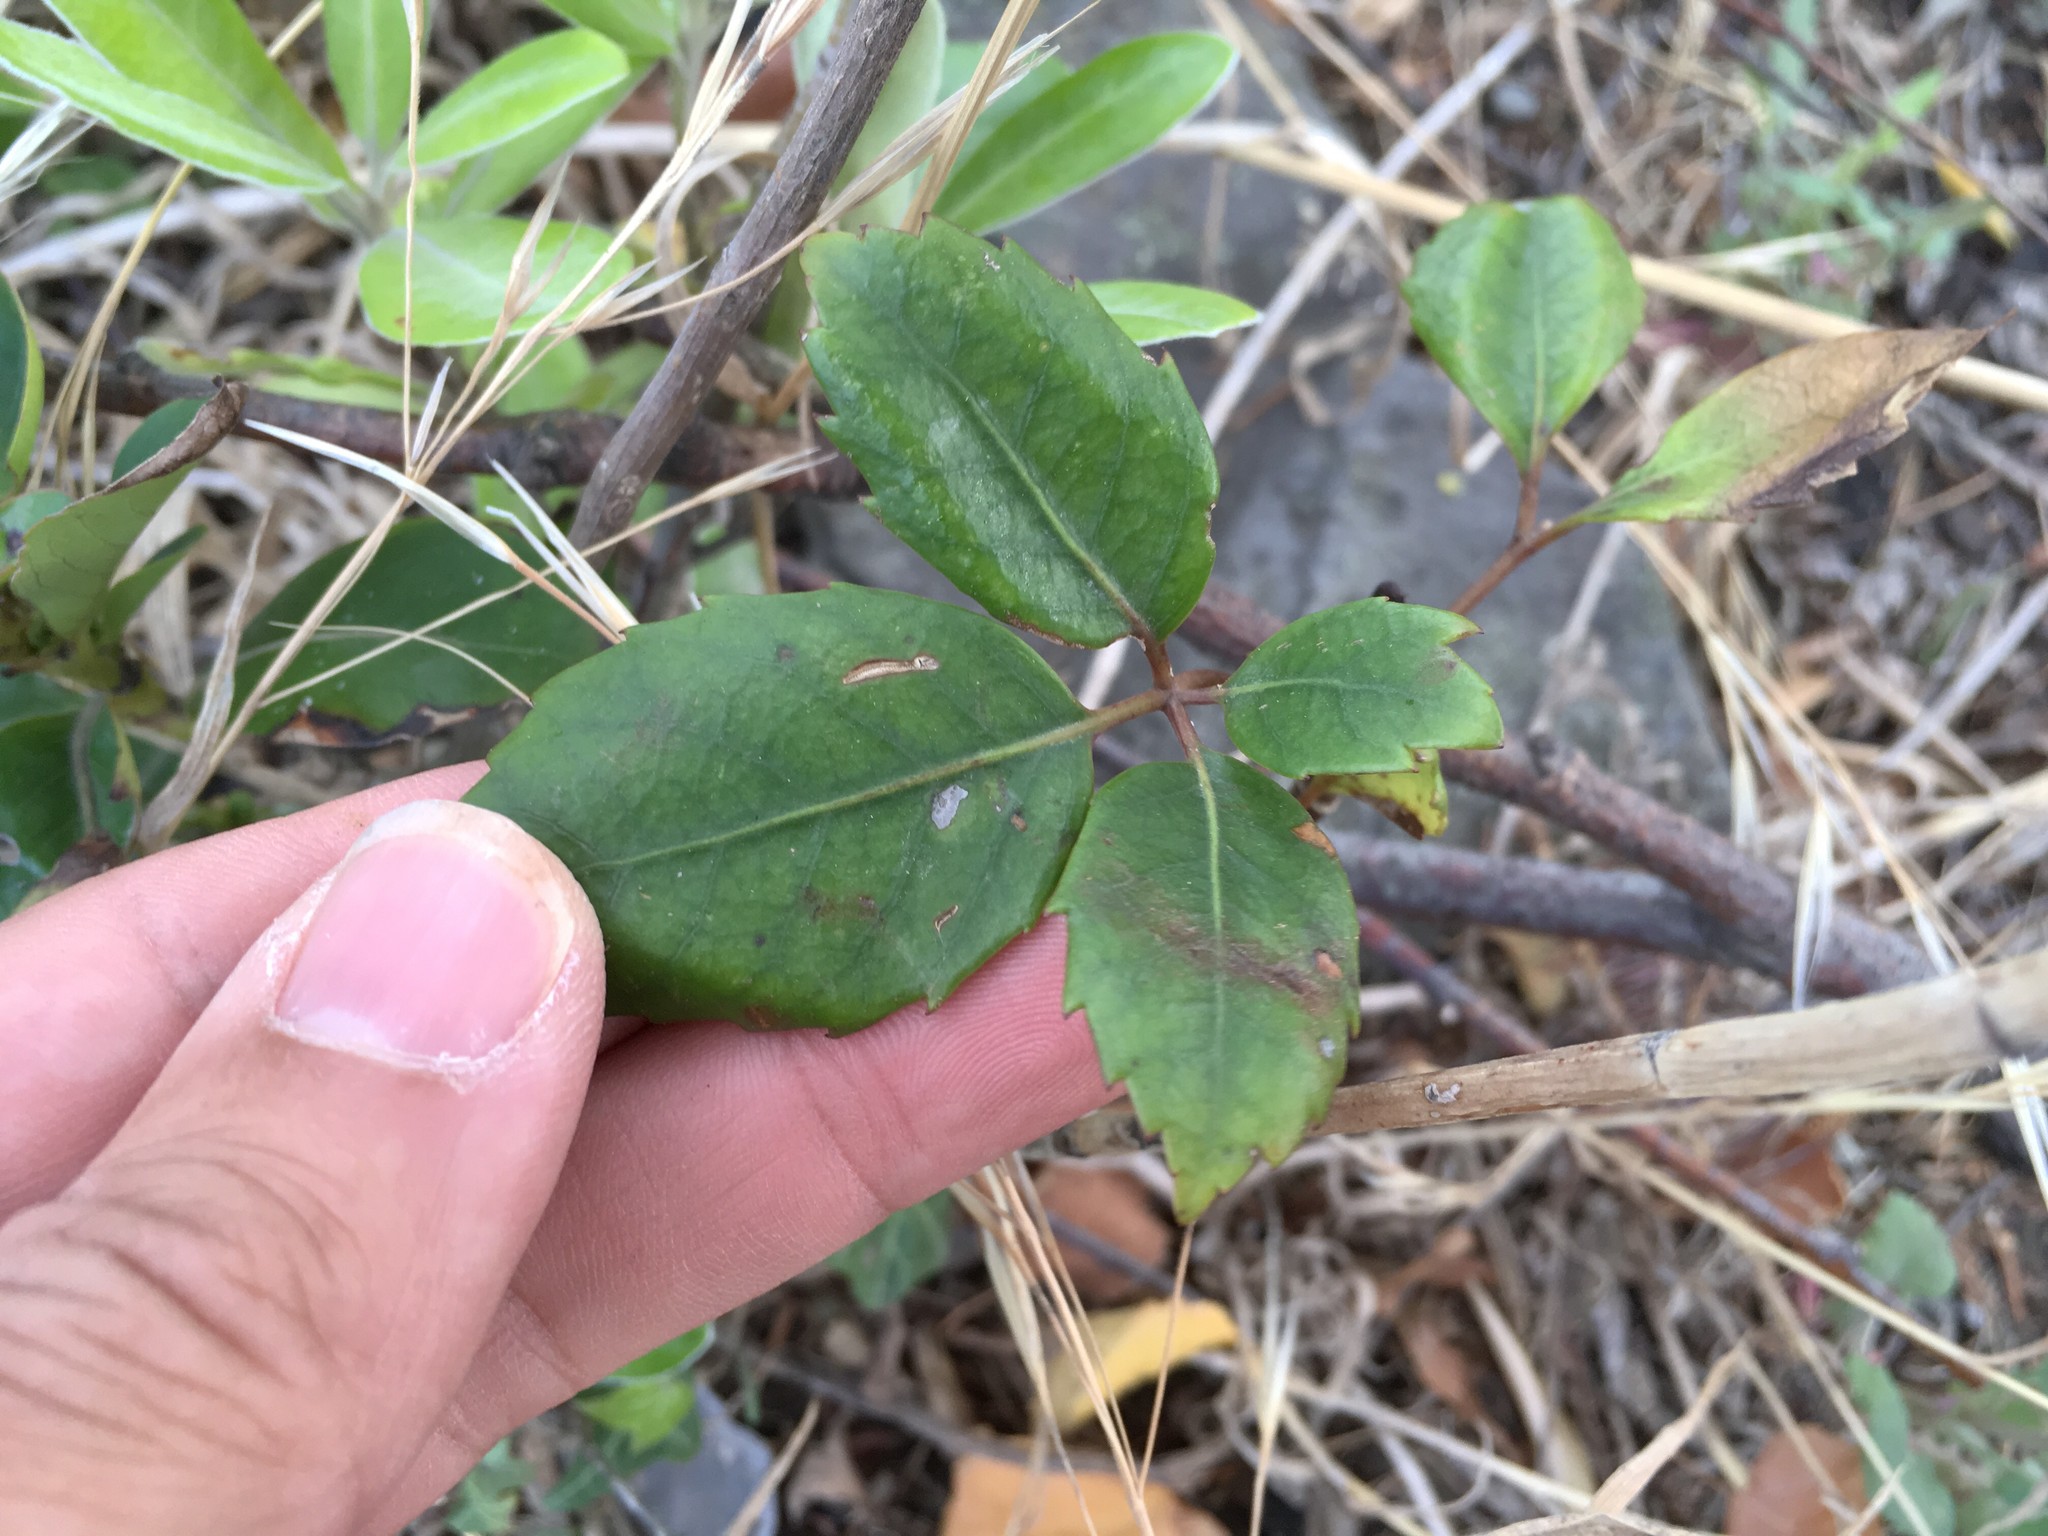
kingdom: Plantae
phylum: Tracheophyta
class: Magnoliopsida
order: Apiales
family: Araliaceae
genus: Neopanax
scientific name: Neopanax arboreus
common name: Five-fingers
